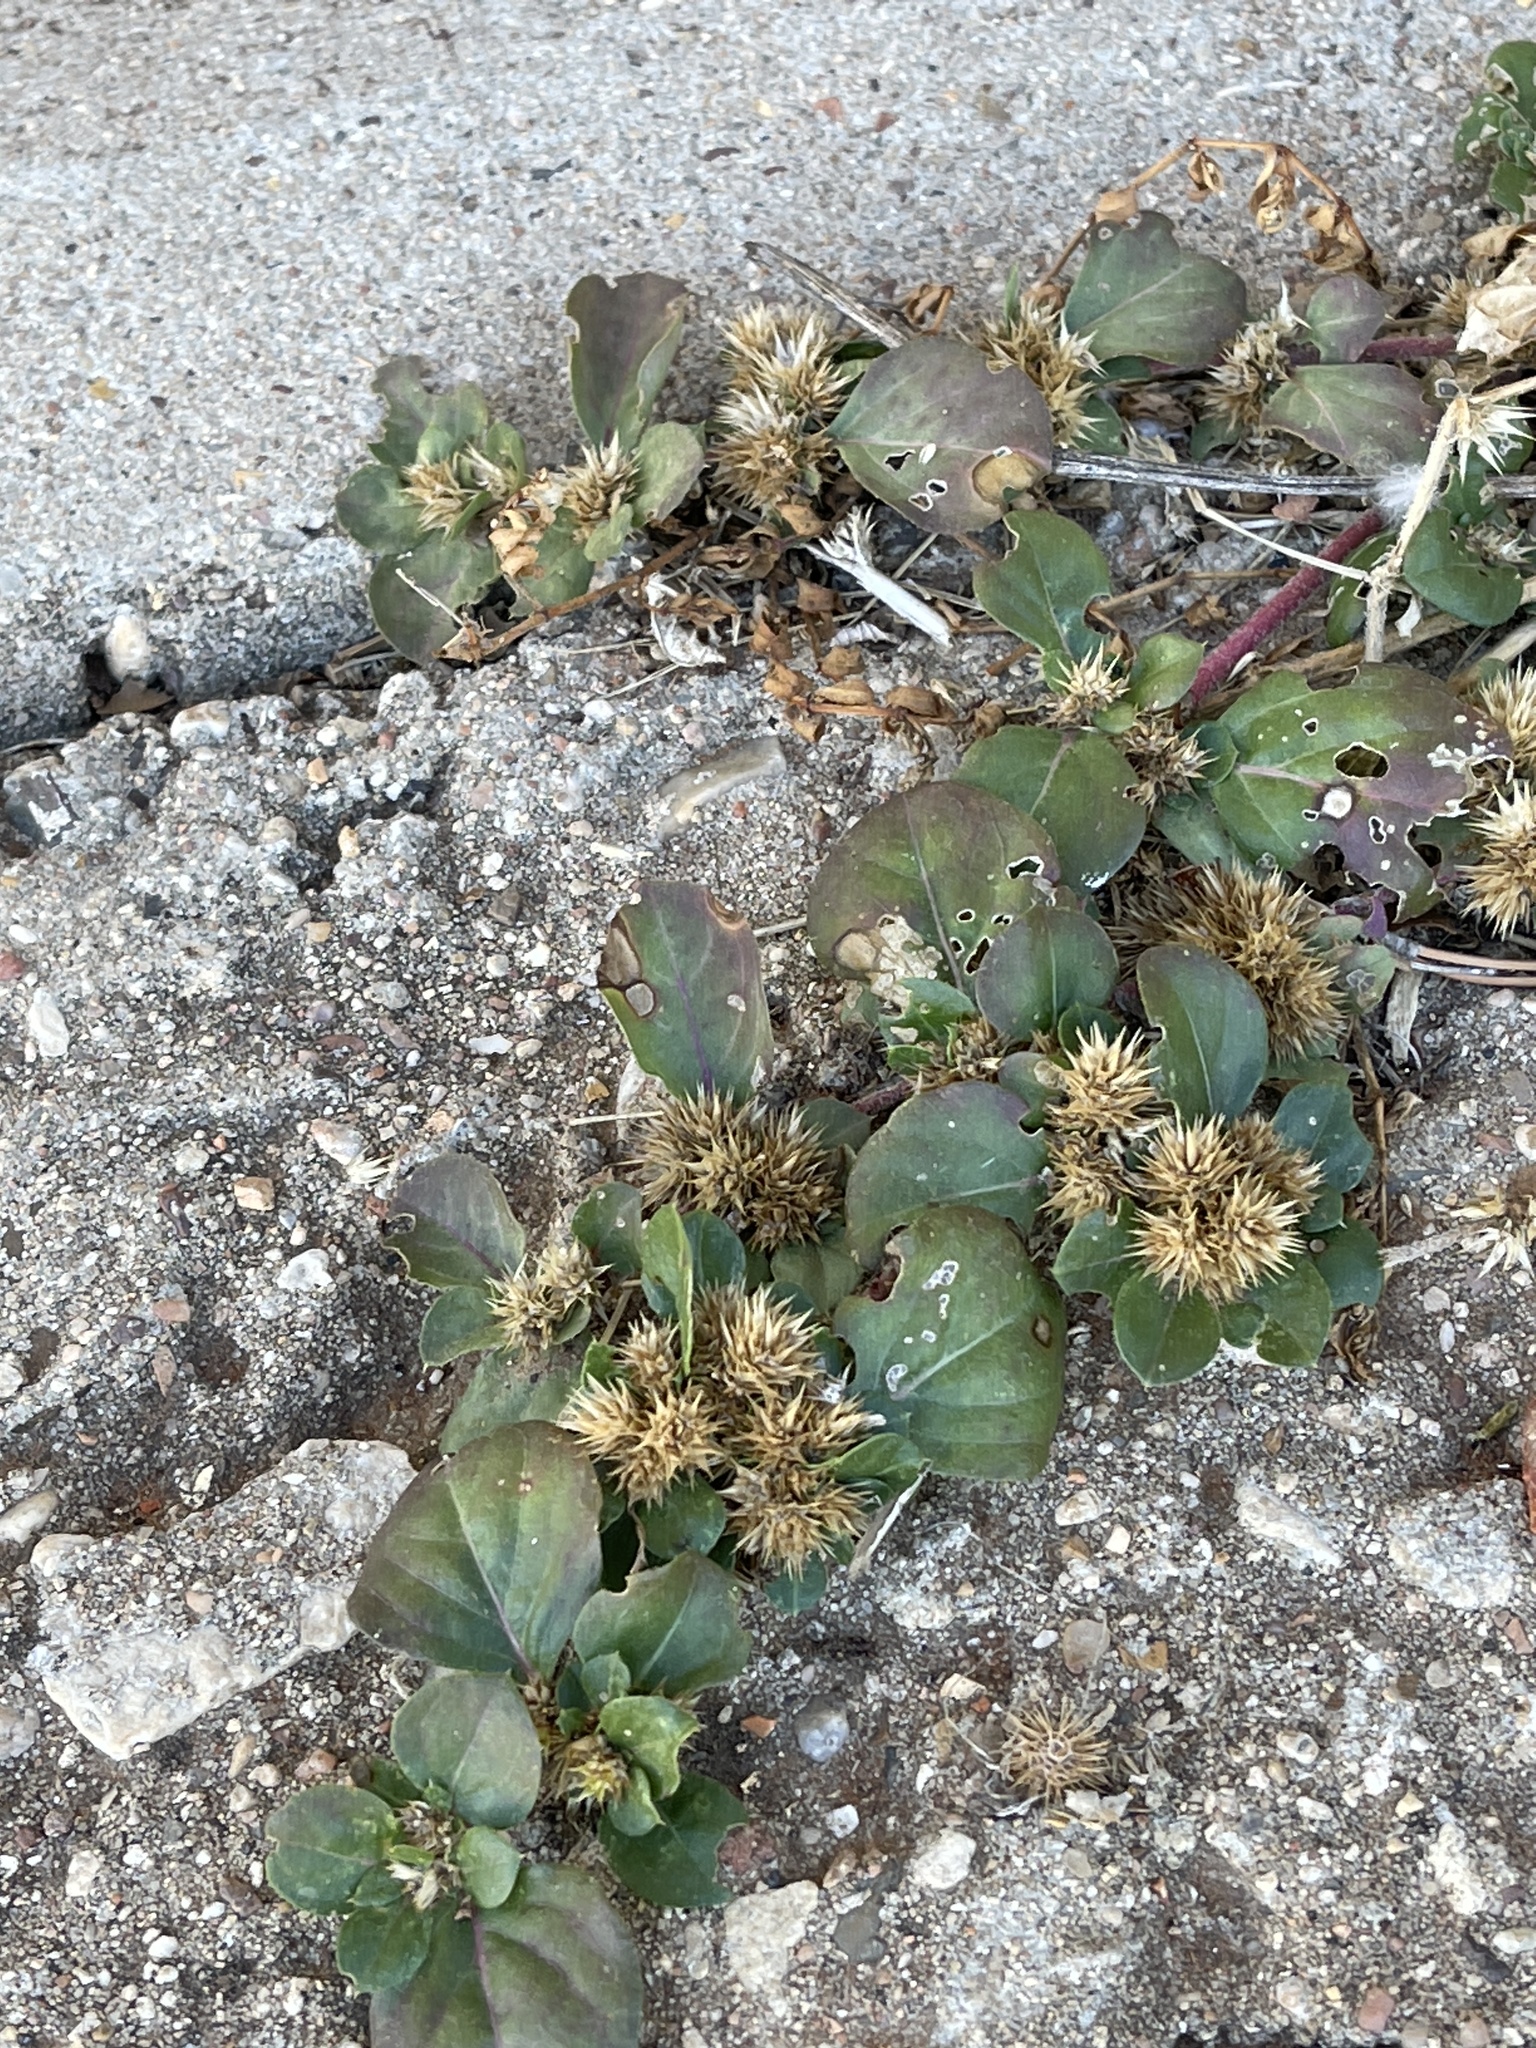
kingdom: Plantae
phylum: Tracheophyta
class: Magnoliopsida
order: Caryophyllales
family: Amaranthaceae
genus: Alternanthera
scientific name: Alternanthera pungens
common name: Khakiweed
